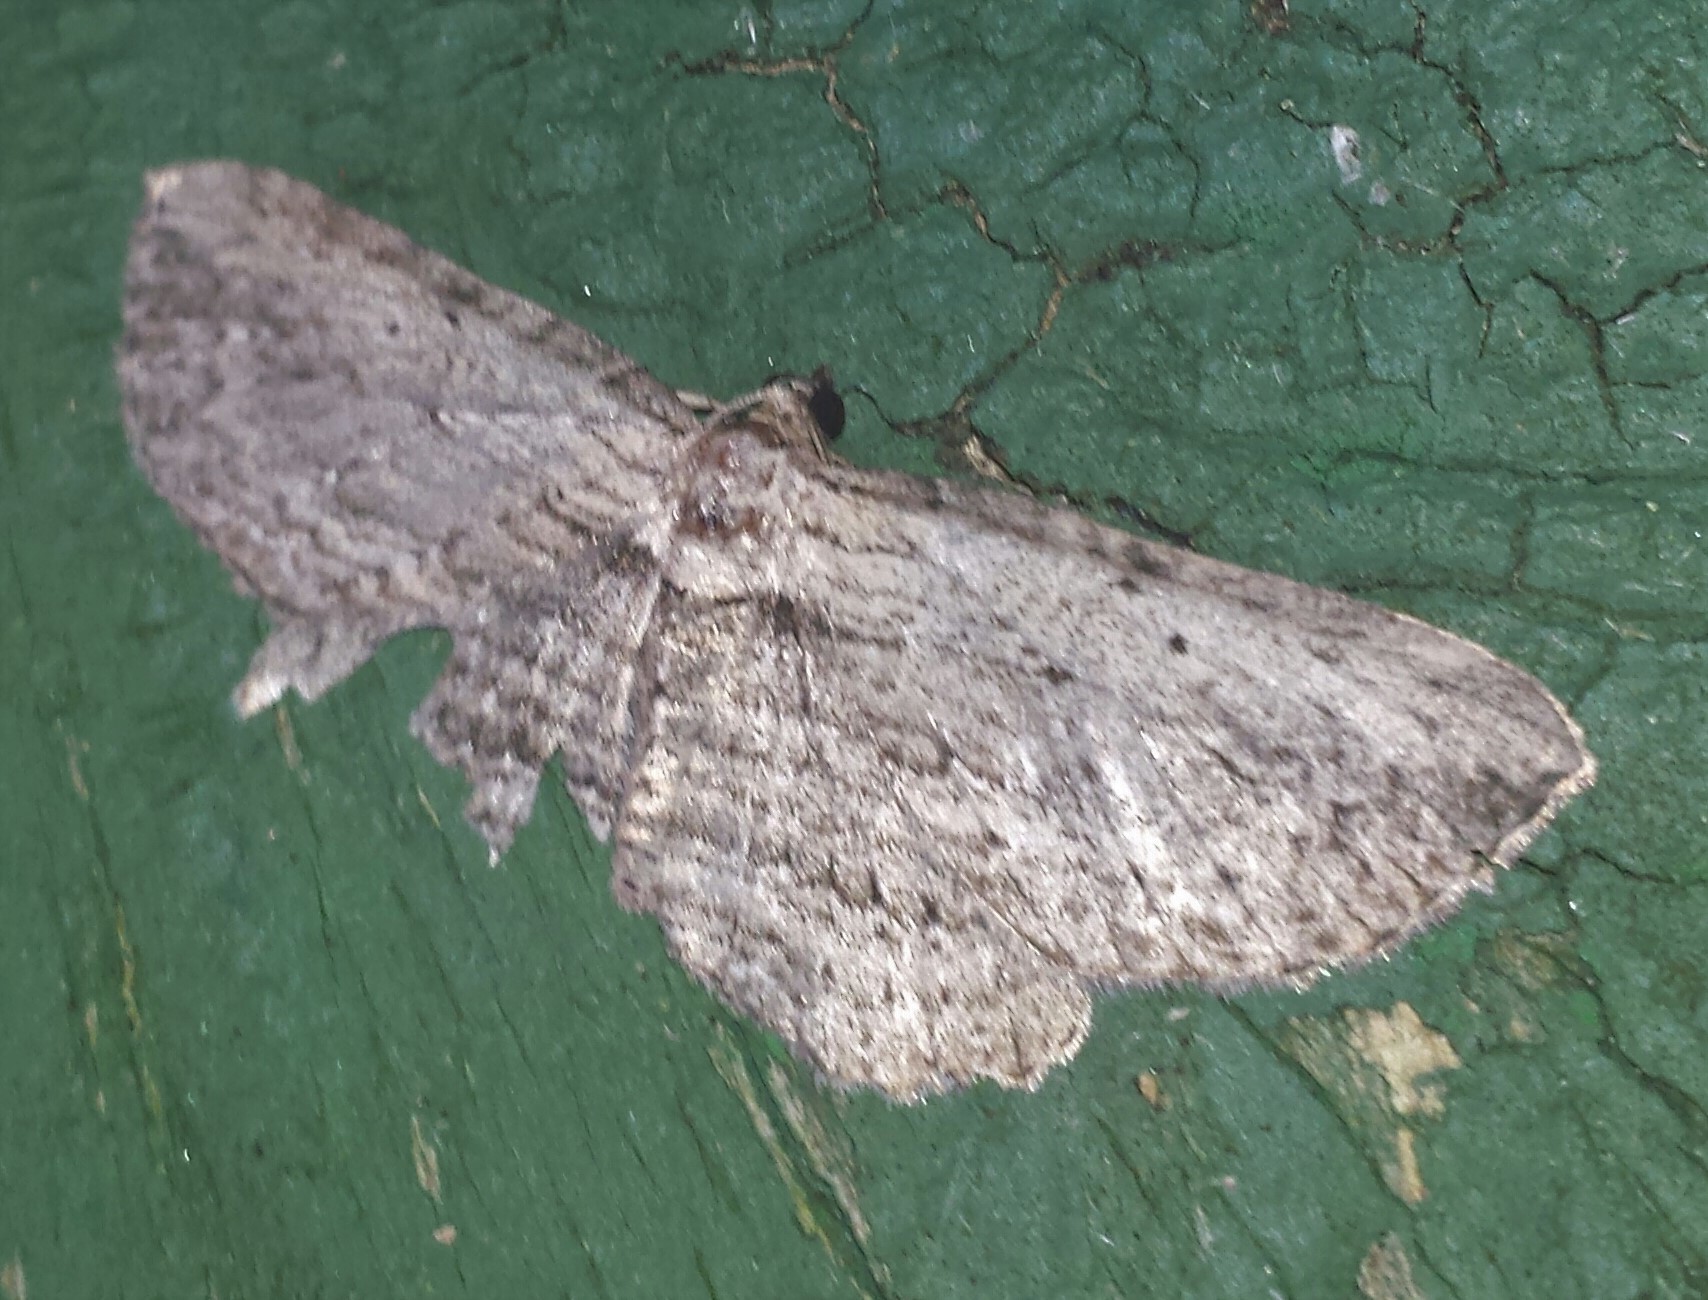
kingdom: Animalia
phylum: Arthropoda
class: Insecta
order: Lepidoptera
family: Geometridae
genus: Horisme
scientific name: Horisme intestinata
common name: Brown bark carpet
